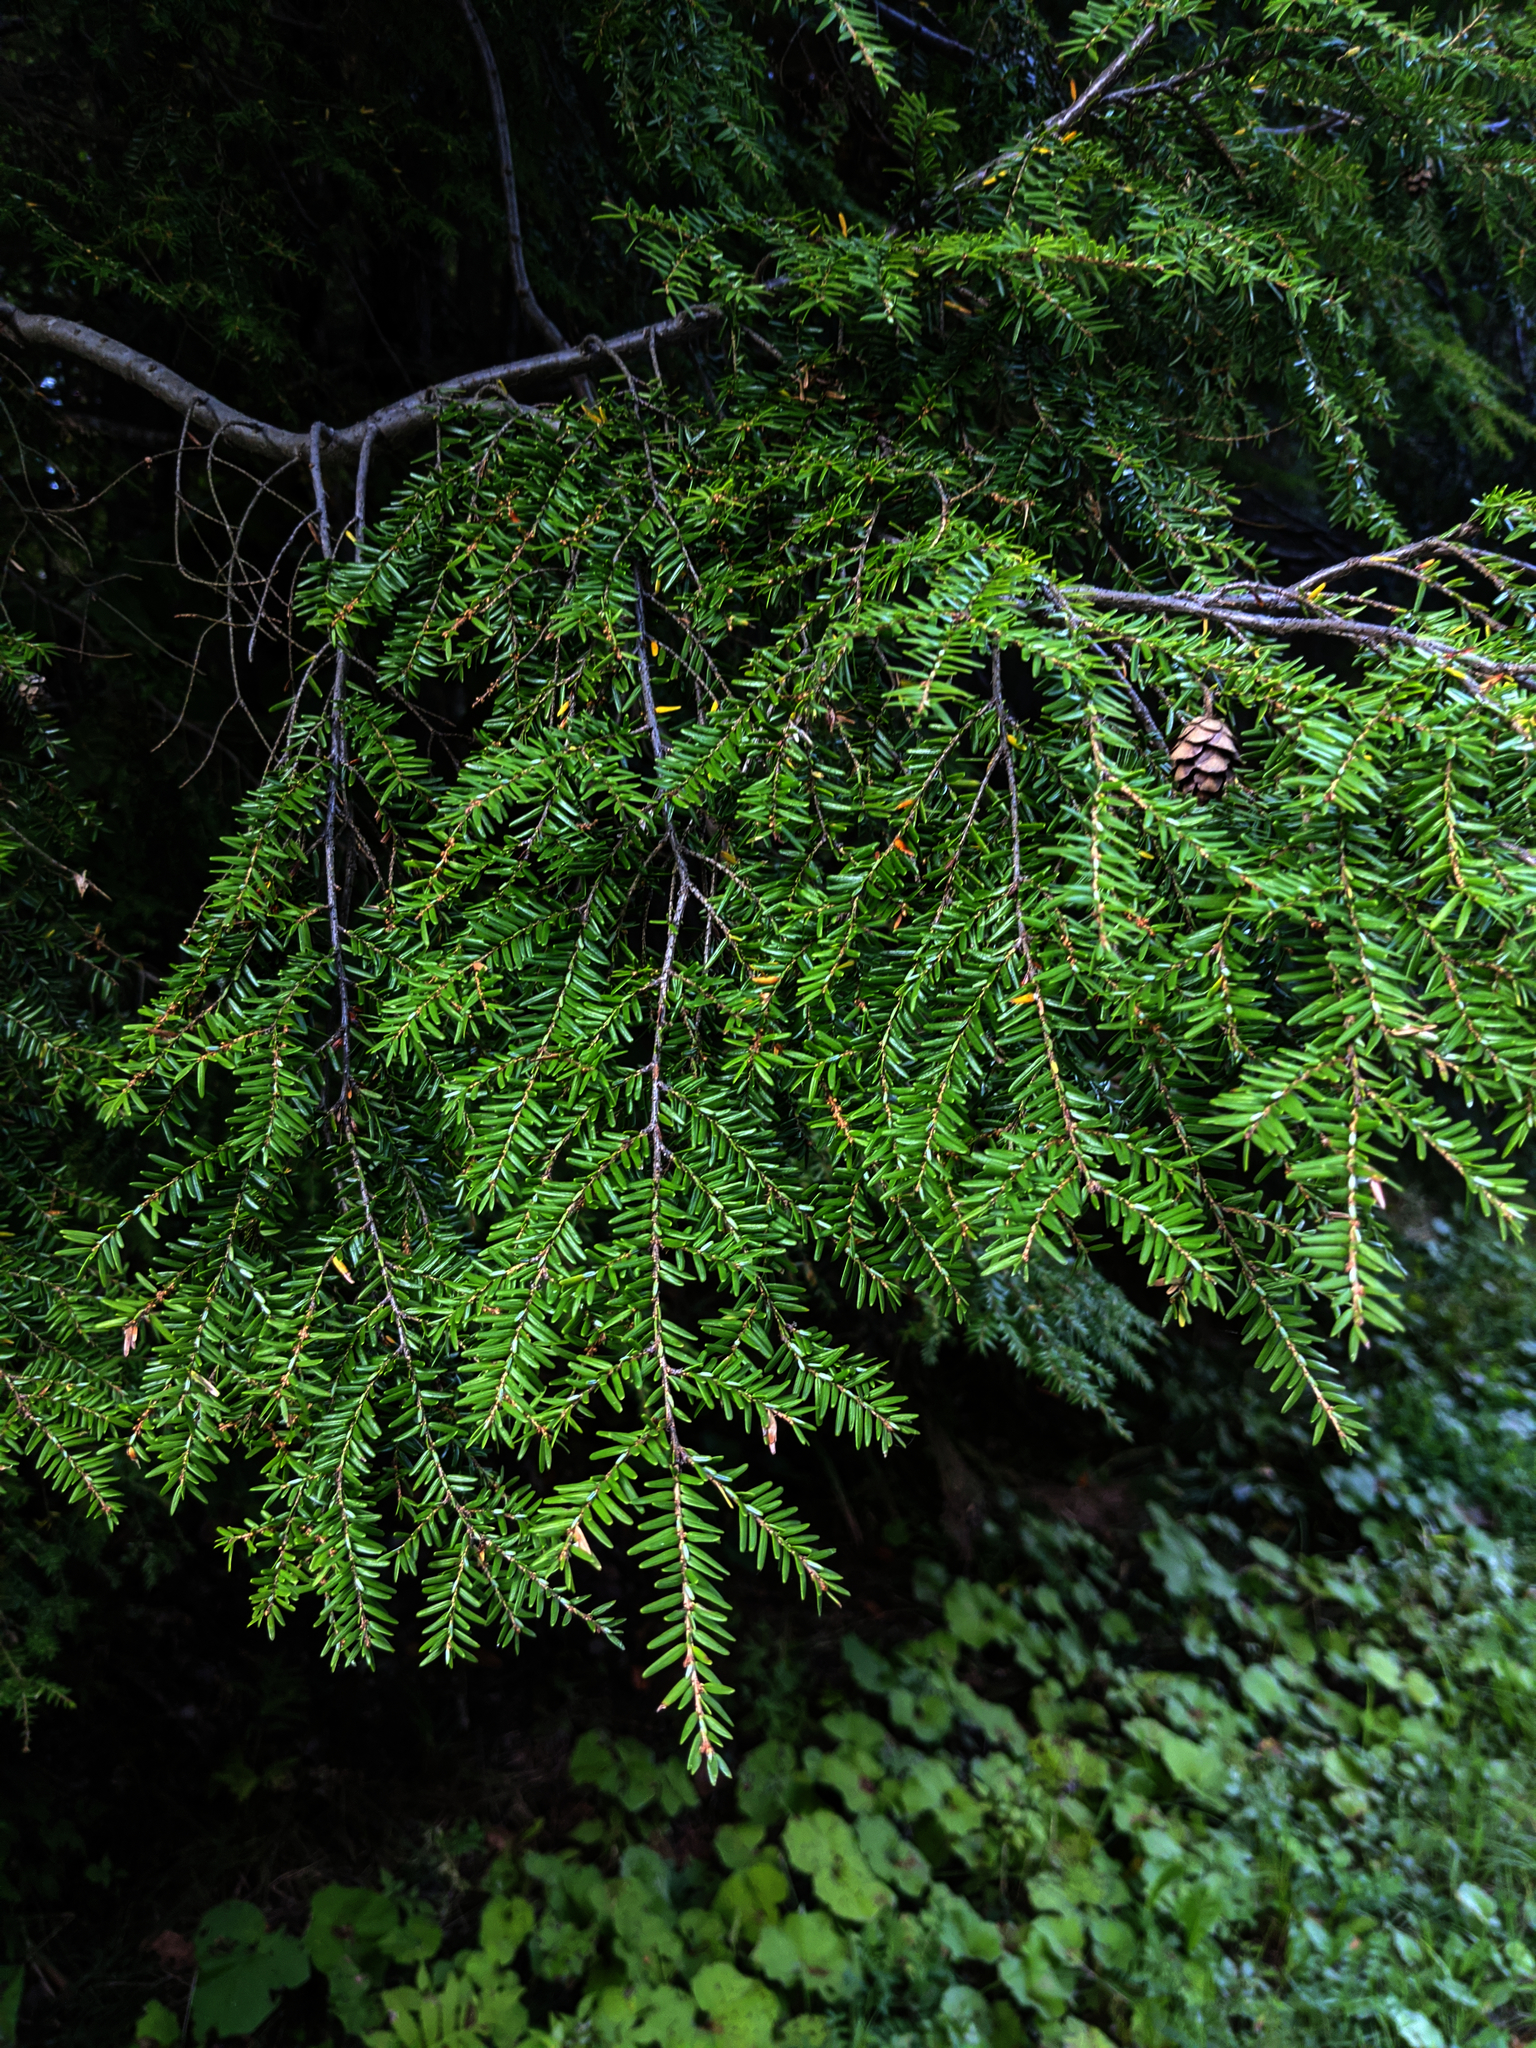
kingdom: Plantae
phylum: Tracheophyta
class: Pinopsida
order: Pinales
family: Pinaceae
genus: Tsuga
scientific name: Tsuga canadensis
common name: Eastern hemlock
